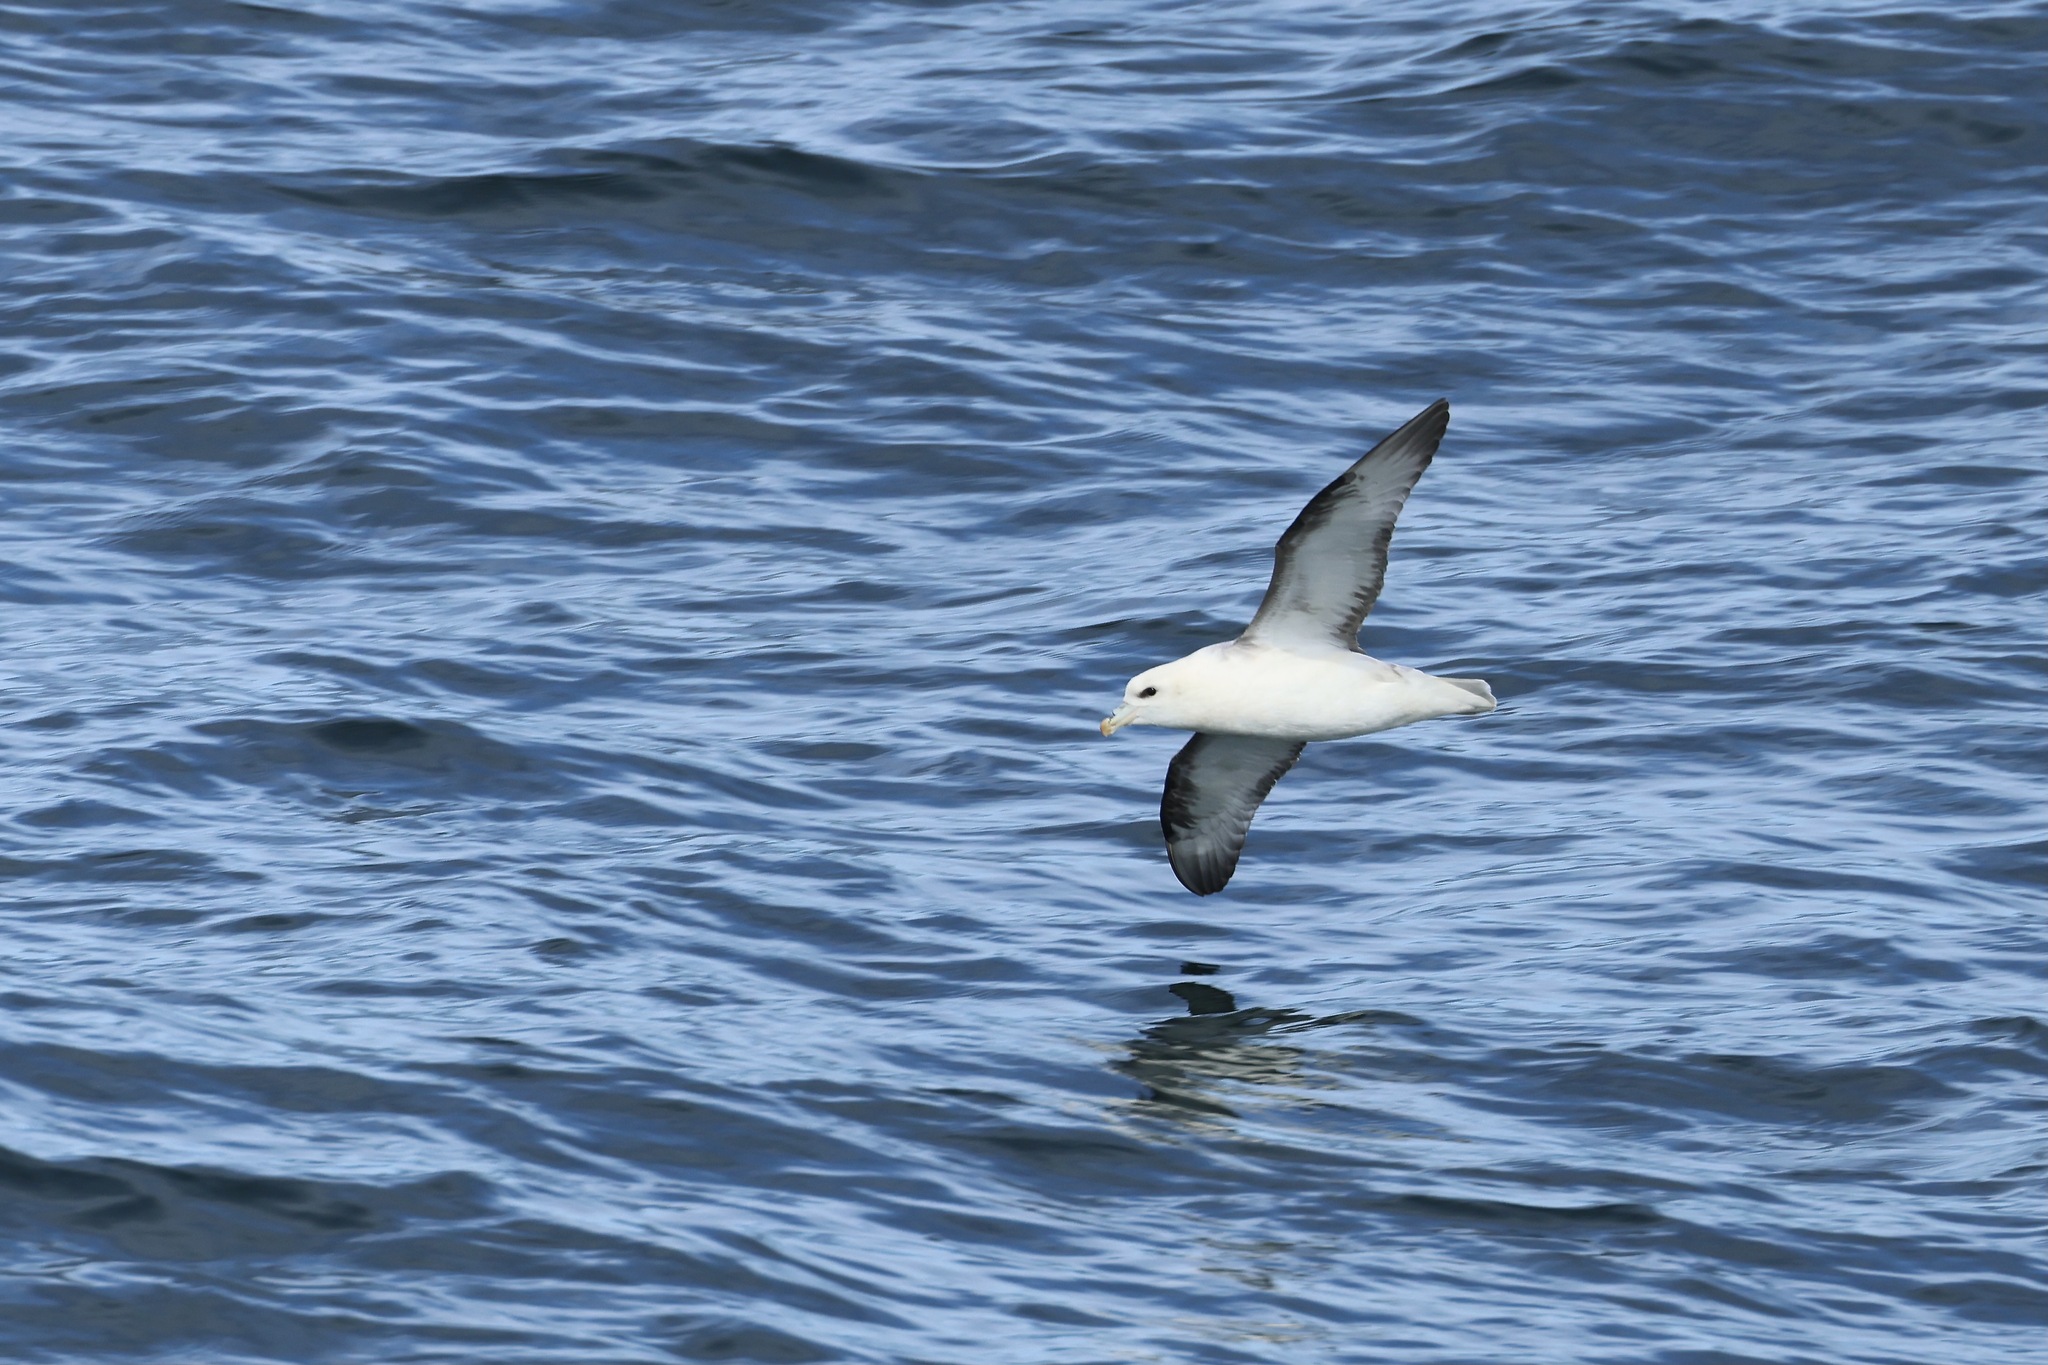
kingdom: Animalia
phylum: Chordata
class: Aves
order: Procellariiformes
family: Procellariidae
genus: Fulmarus
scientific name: Fulmarus glacialis
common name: Northern fulmar
